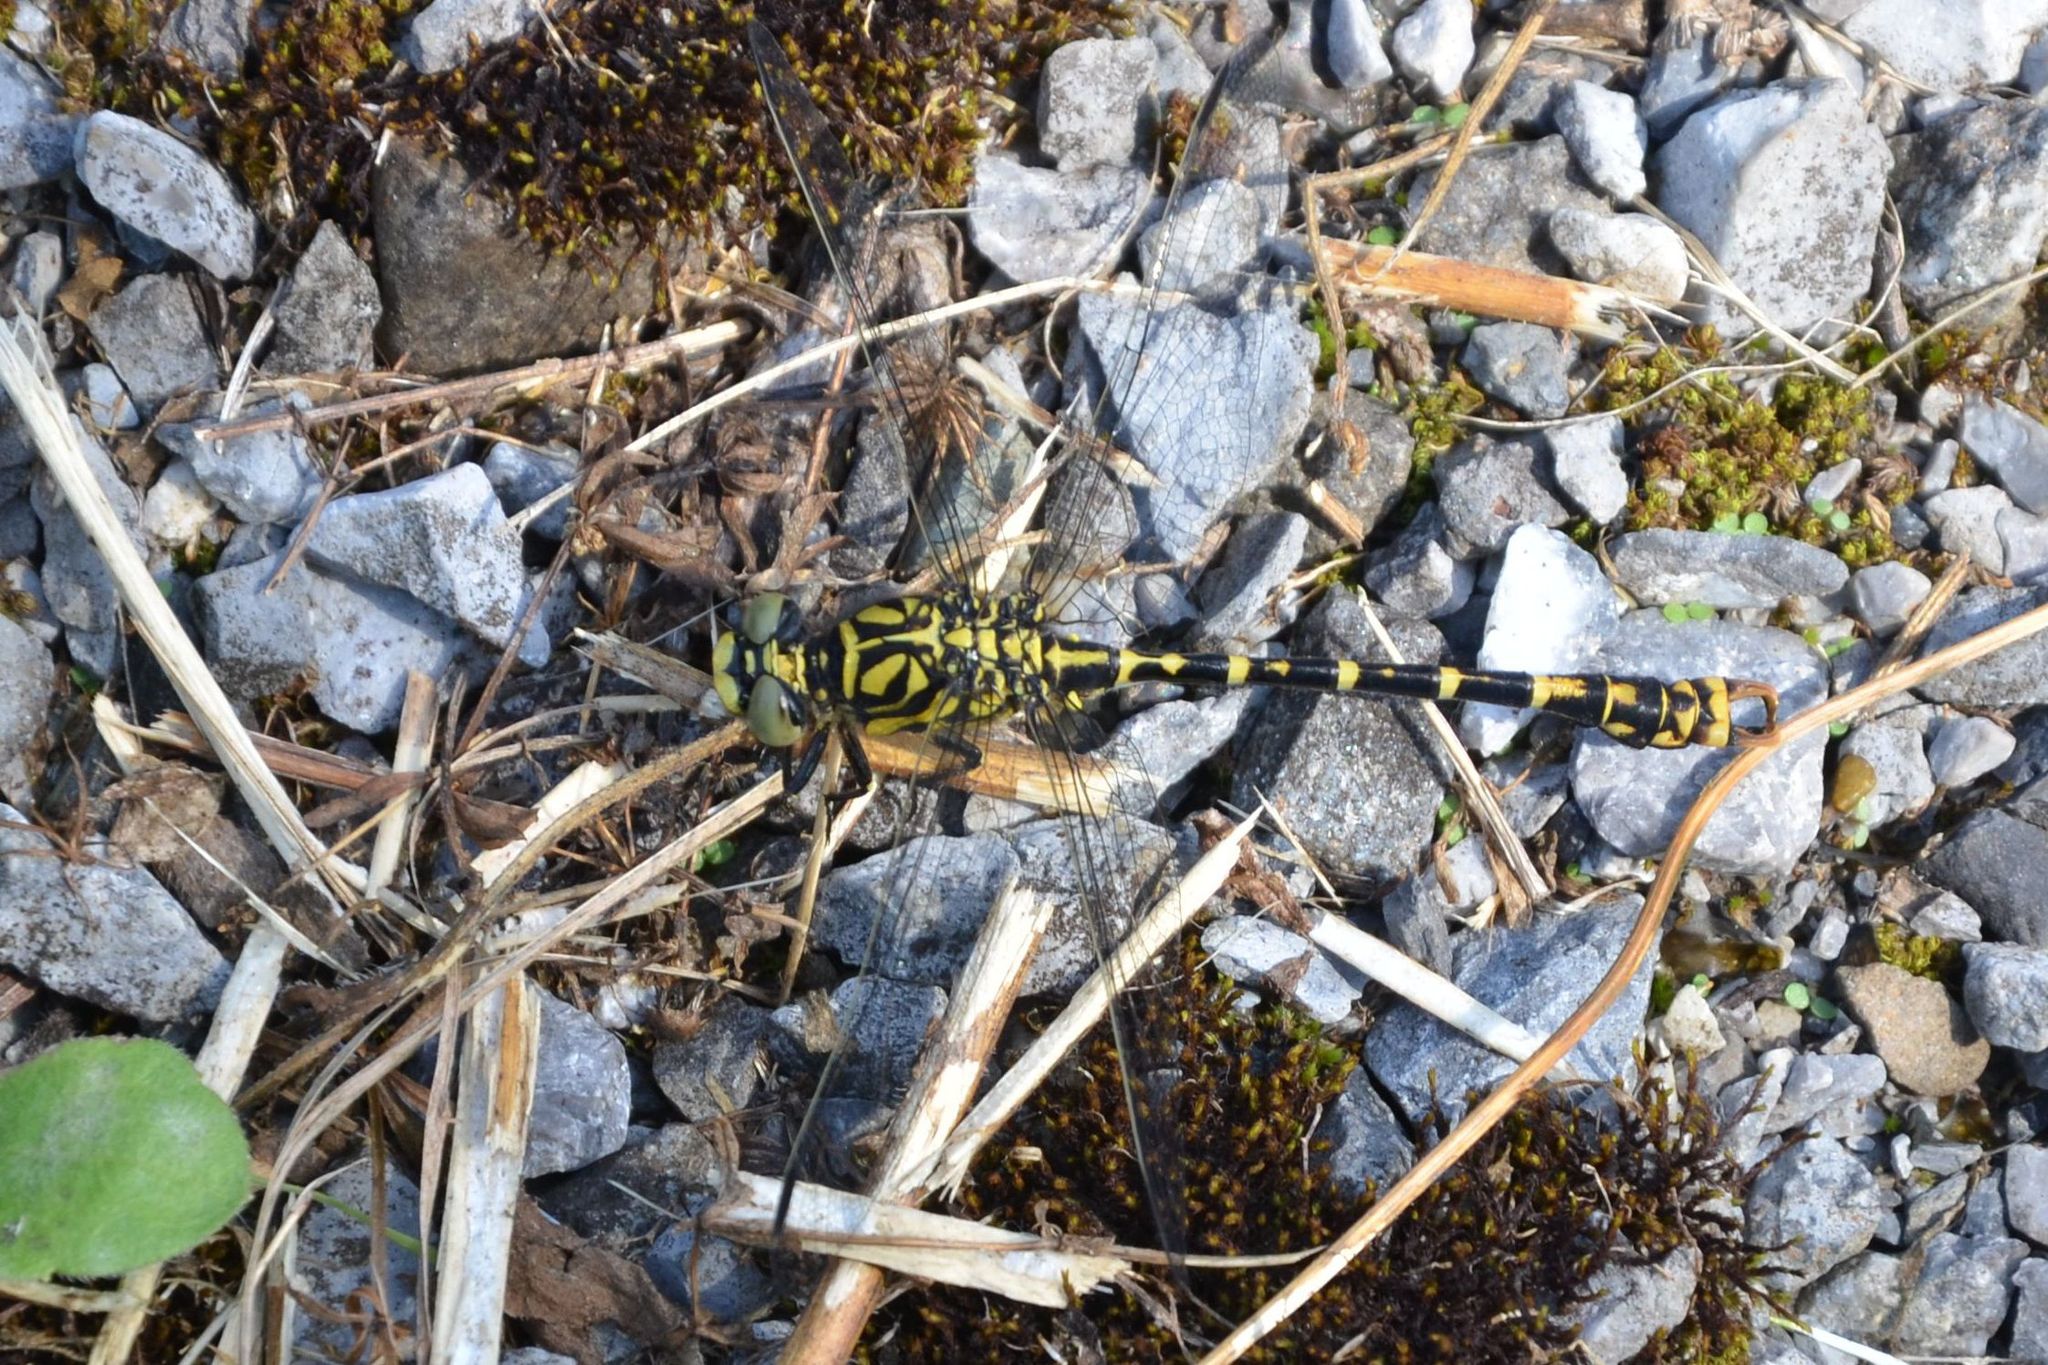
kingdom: Animalia
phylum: Arthropoda
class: Insecta
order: Odonata
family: Gomphidae
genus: Onychogomphus
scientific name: Onychogomphus forcipatus
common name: Small pincertail
